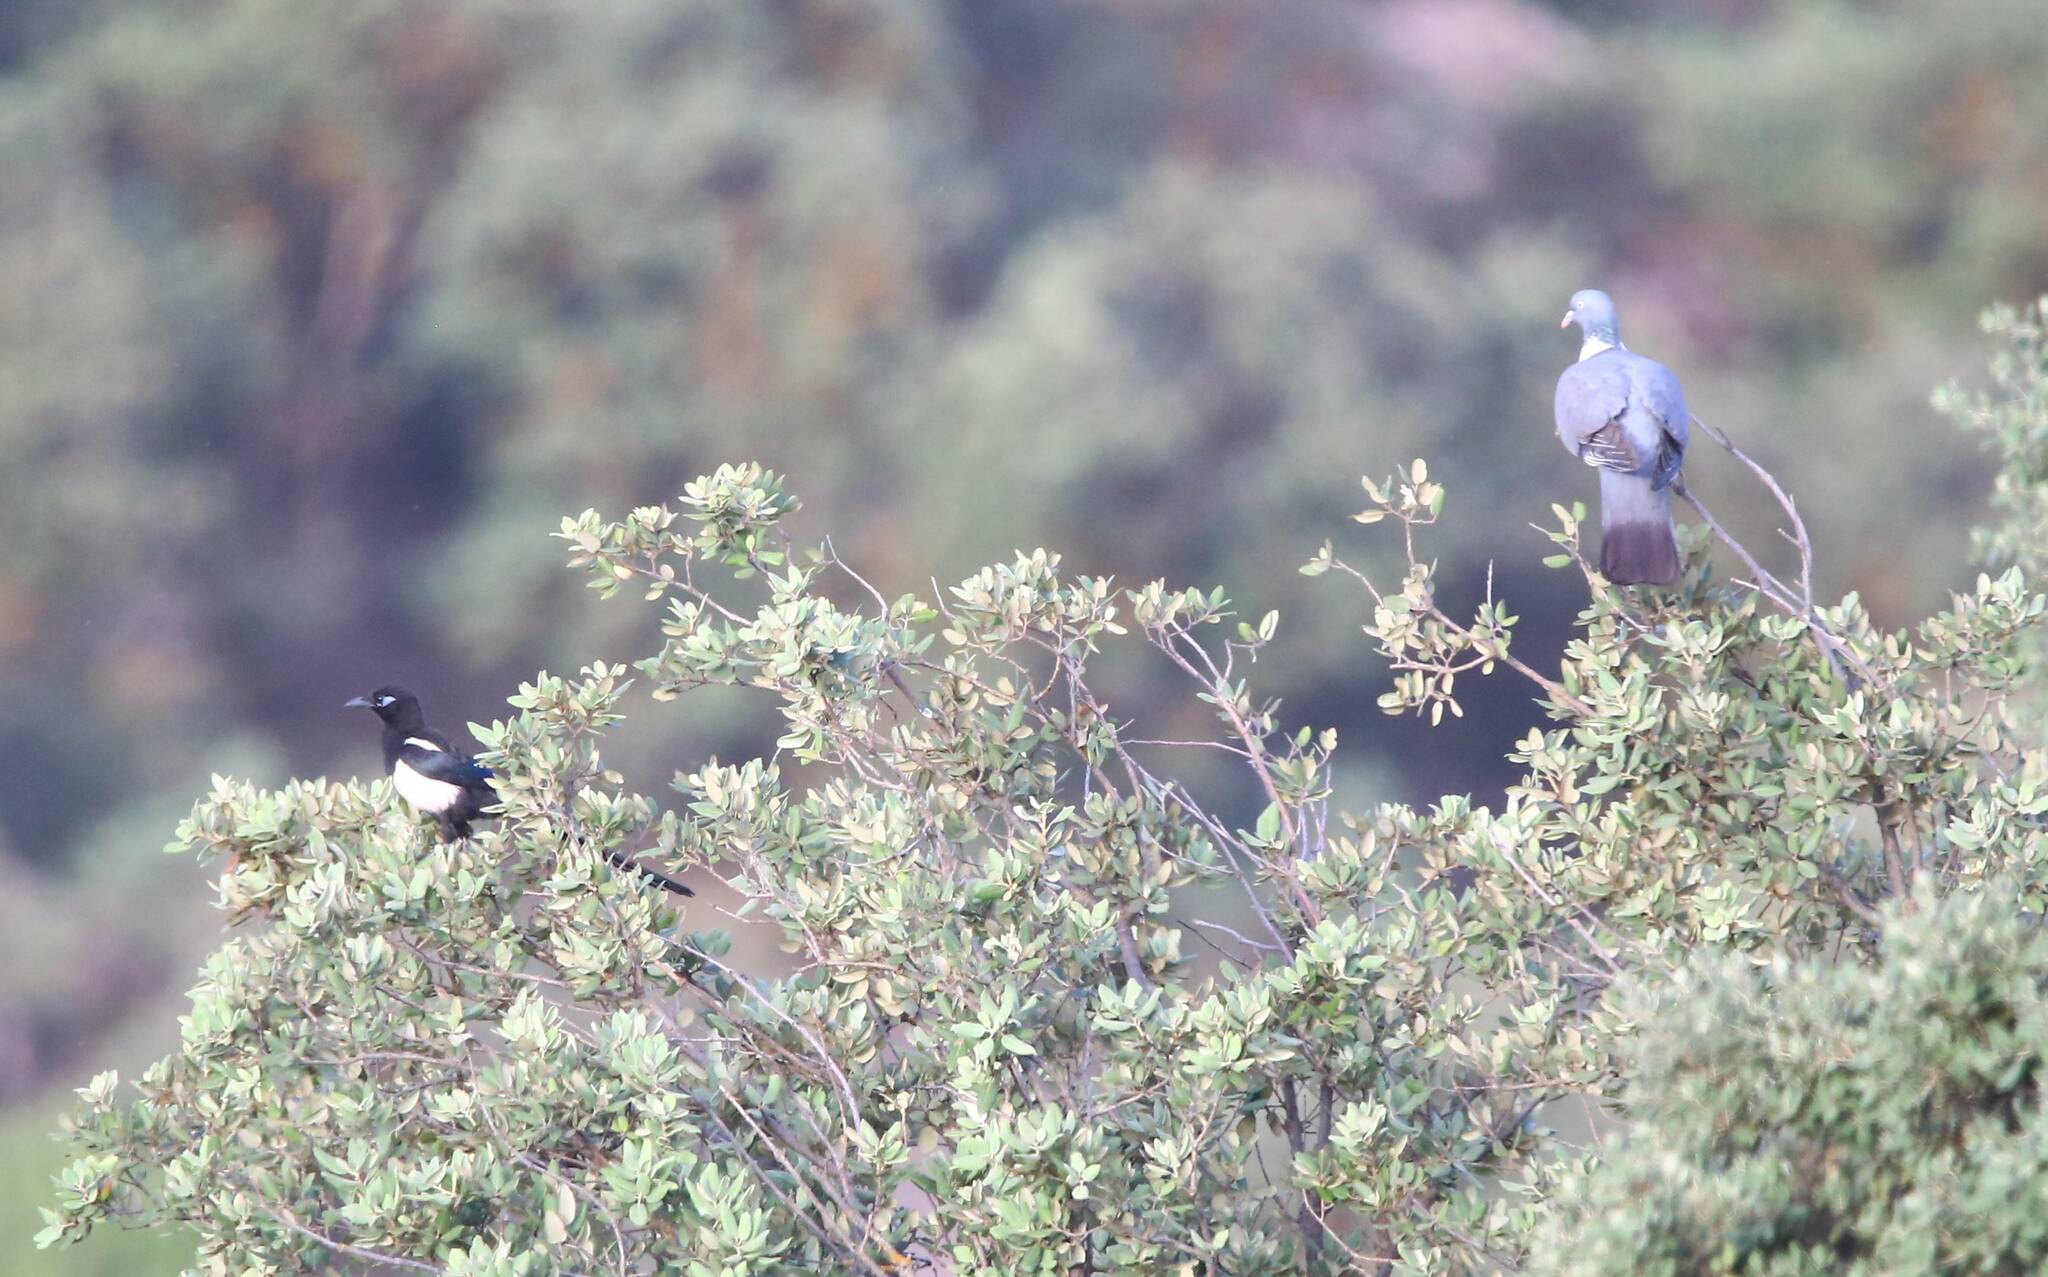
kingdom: Animalia
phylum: Chordata
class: Aves
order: Passeriformes
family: Corvidae
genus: Pica
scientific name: Pica mauritanica
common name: Maghreb magpie
